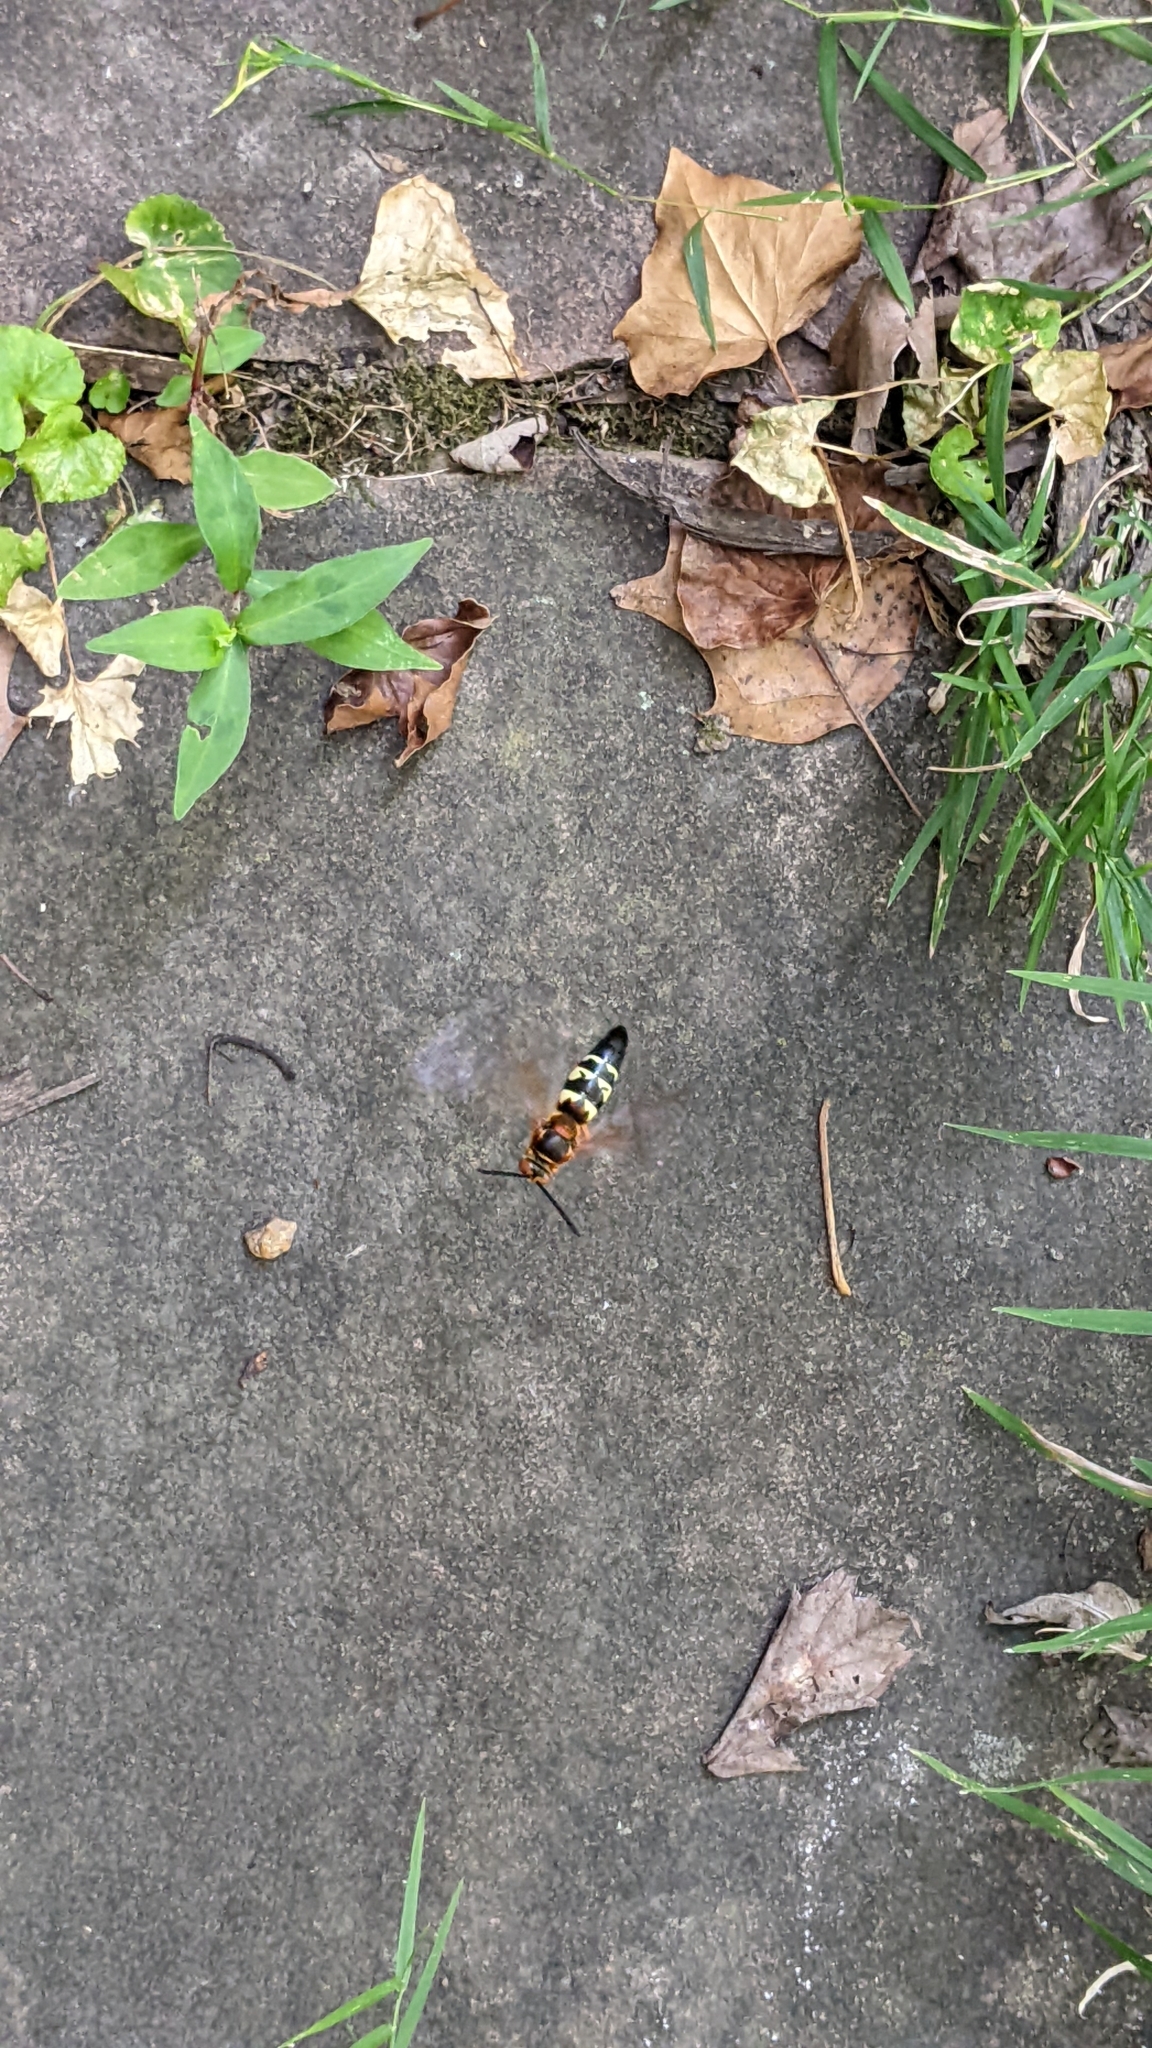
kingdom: Animalia
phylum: Arthropoda
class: Insecta
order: Hymenoptera
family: Crabronidae
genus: Sphecius
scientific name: Sphecius speciosus
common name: Cicada killer
